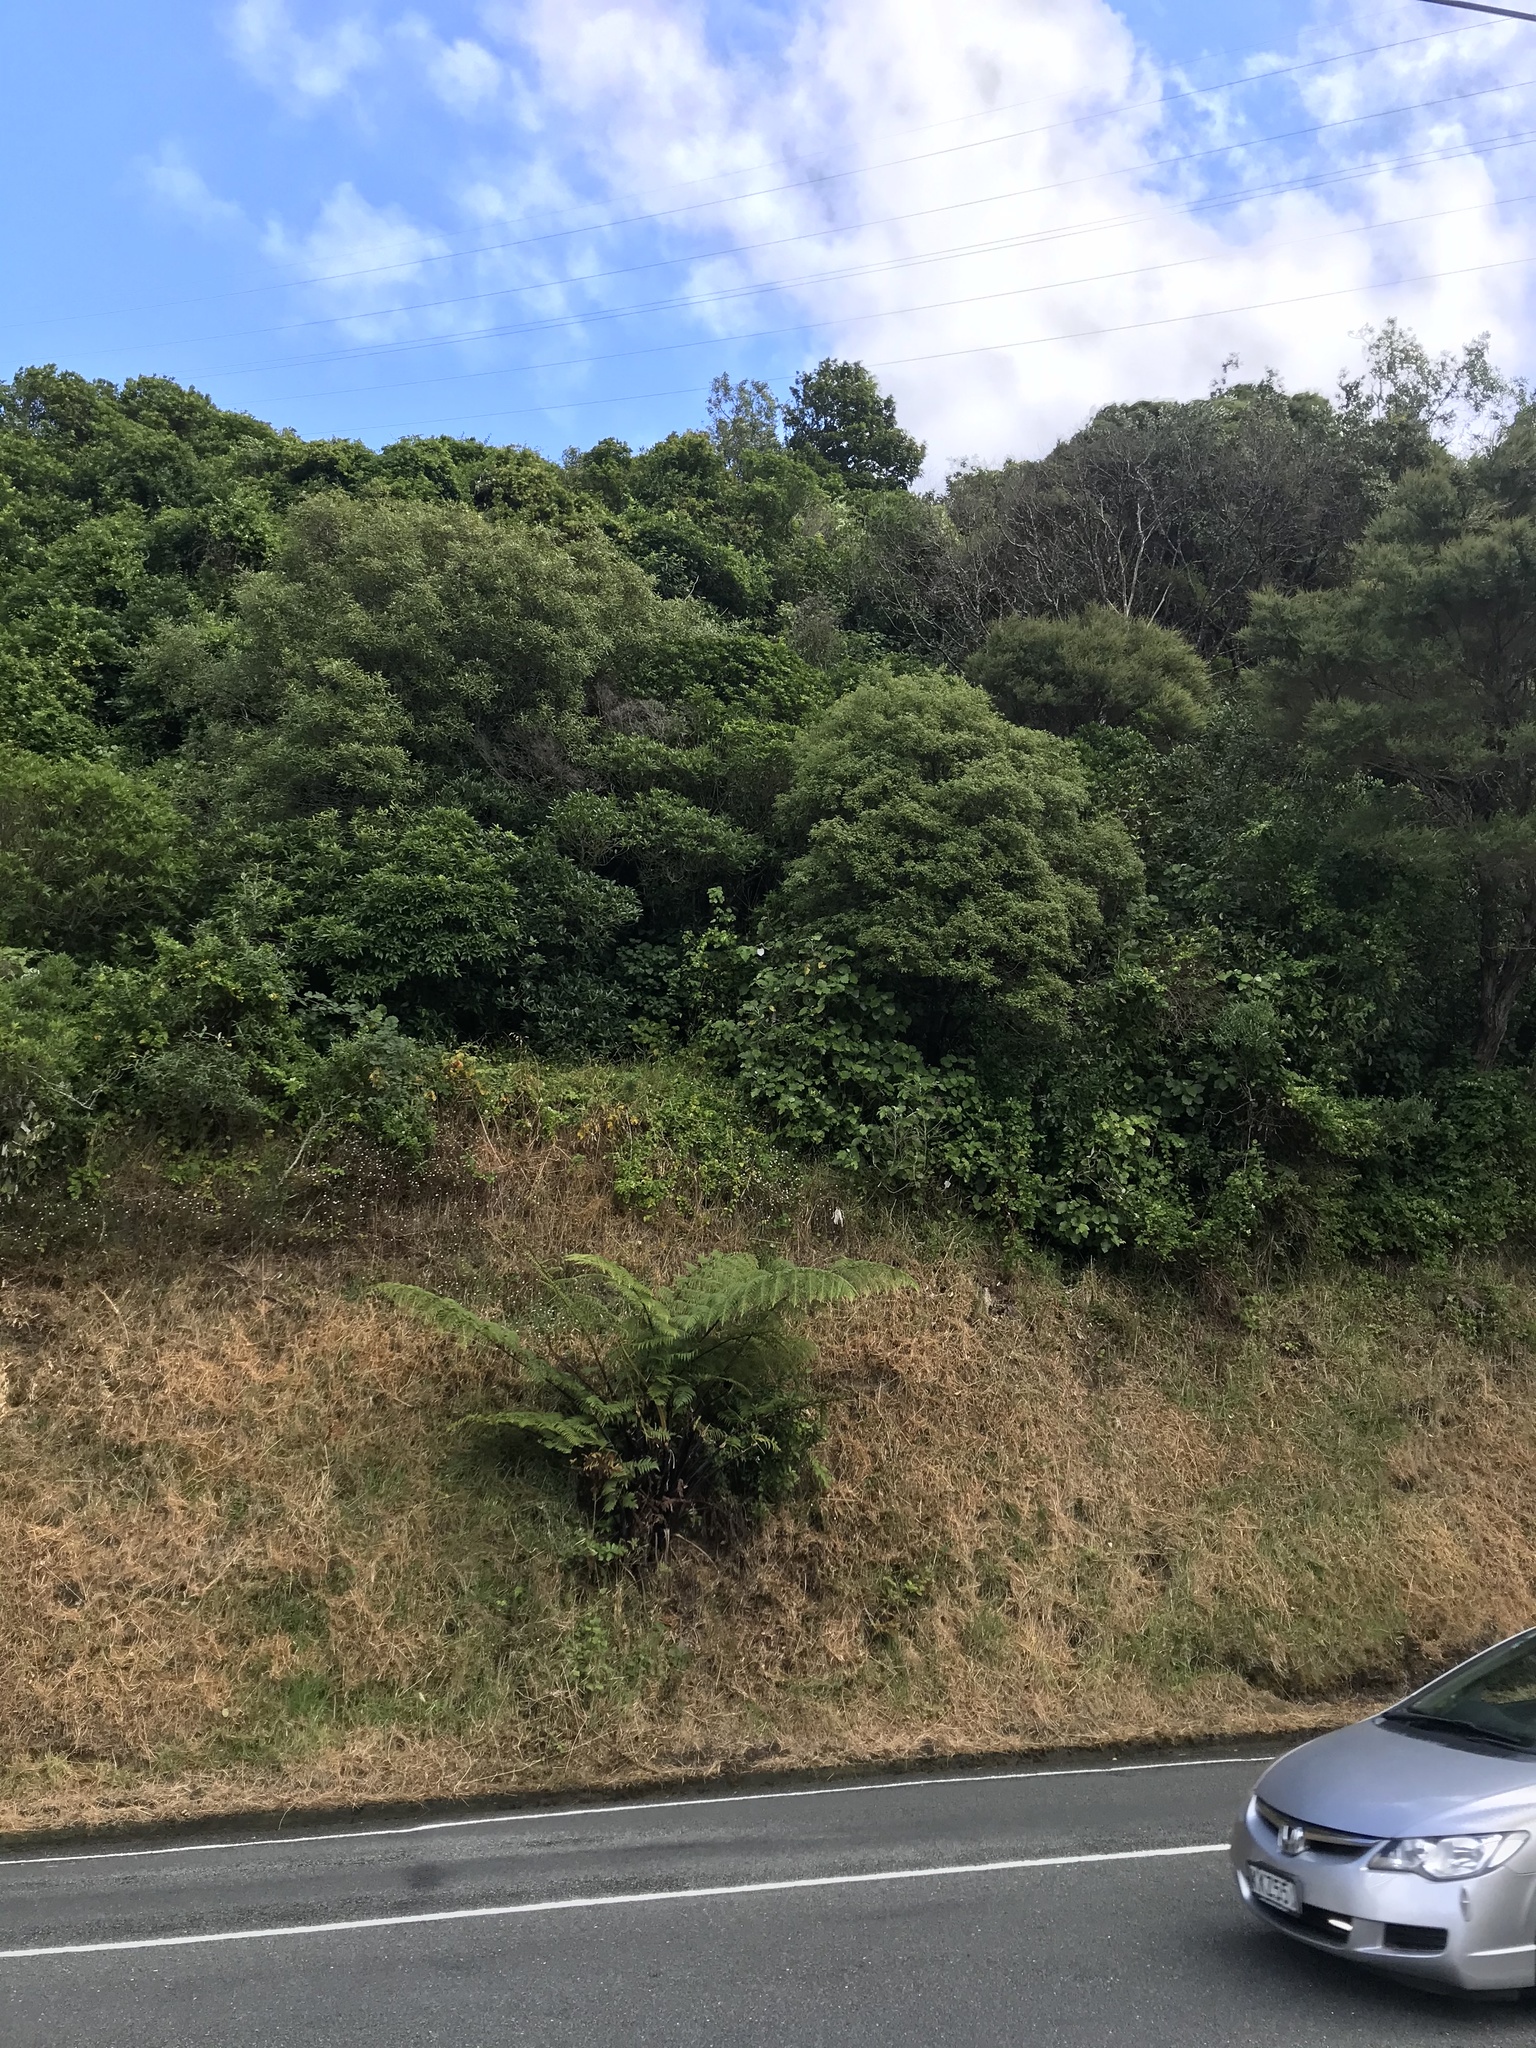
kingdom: Plantae
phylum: Tracheophyta
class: Magnoliopsida
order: Ranunculales
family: Ranunculaceae
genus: Clematis
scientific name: Clematis vitalba
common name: Evergreen clematis
